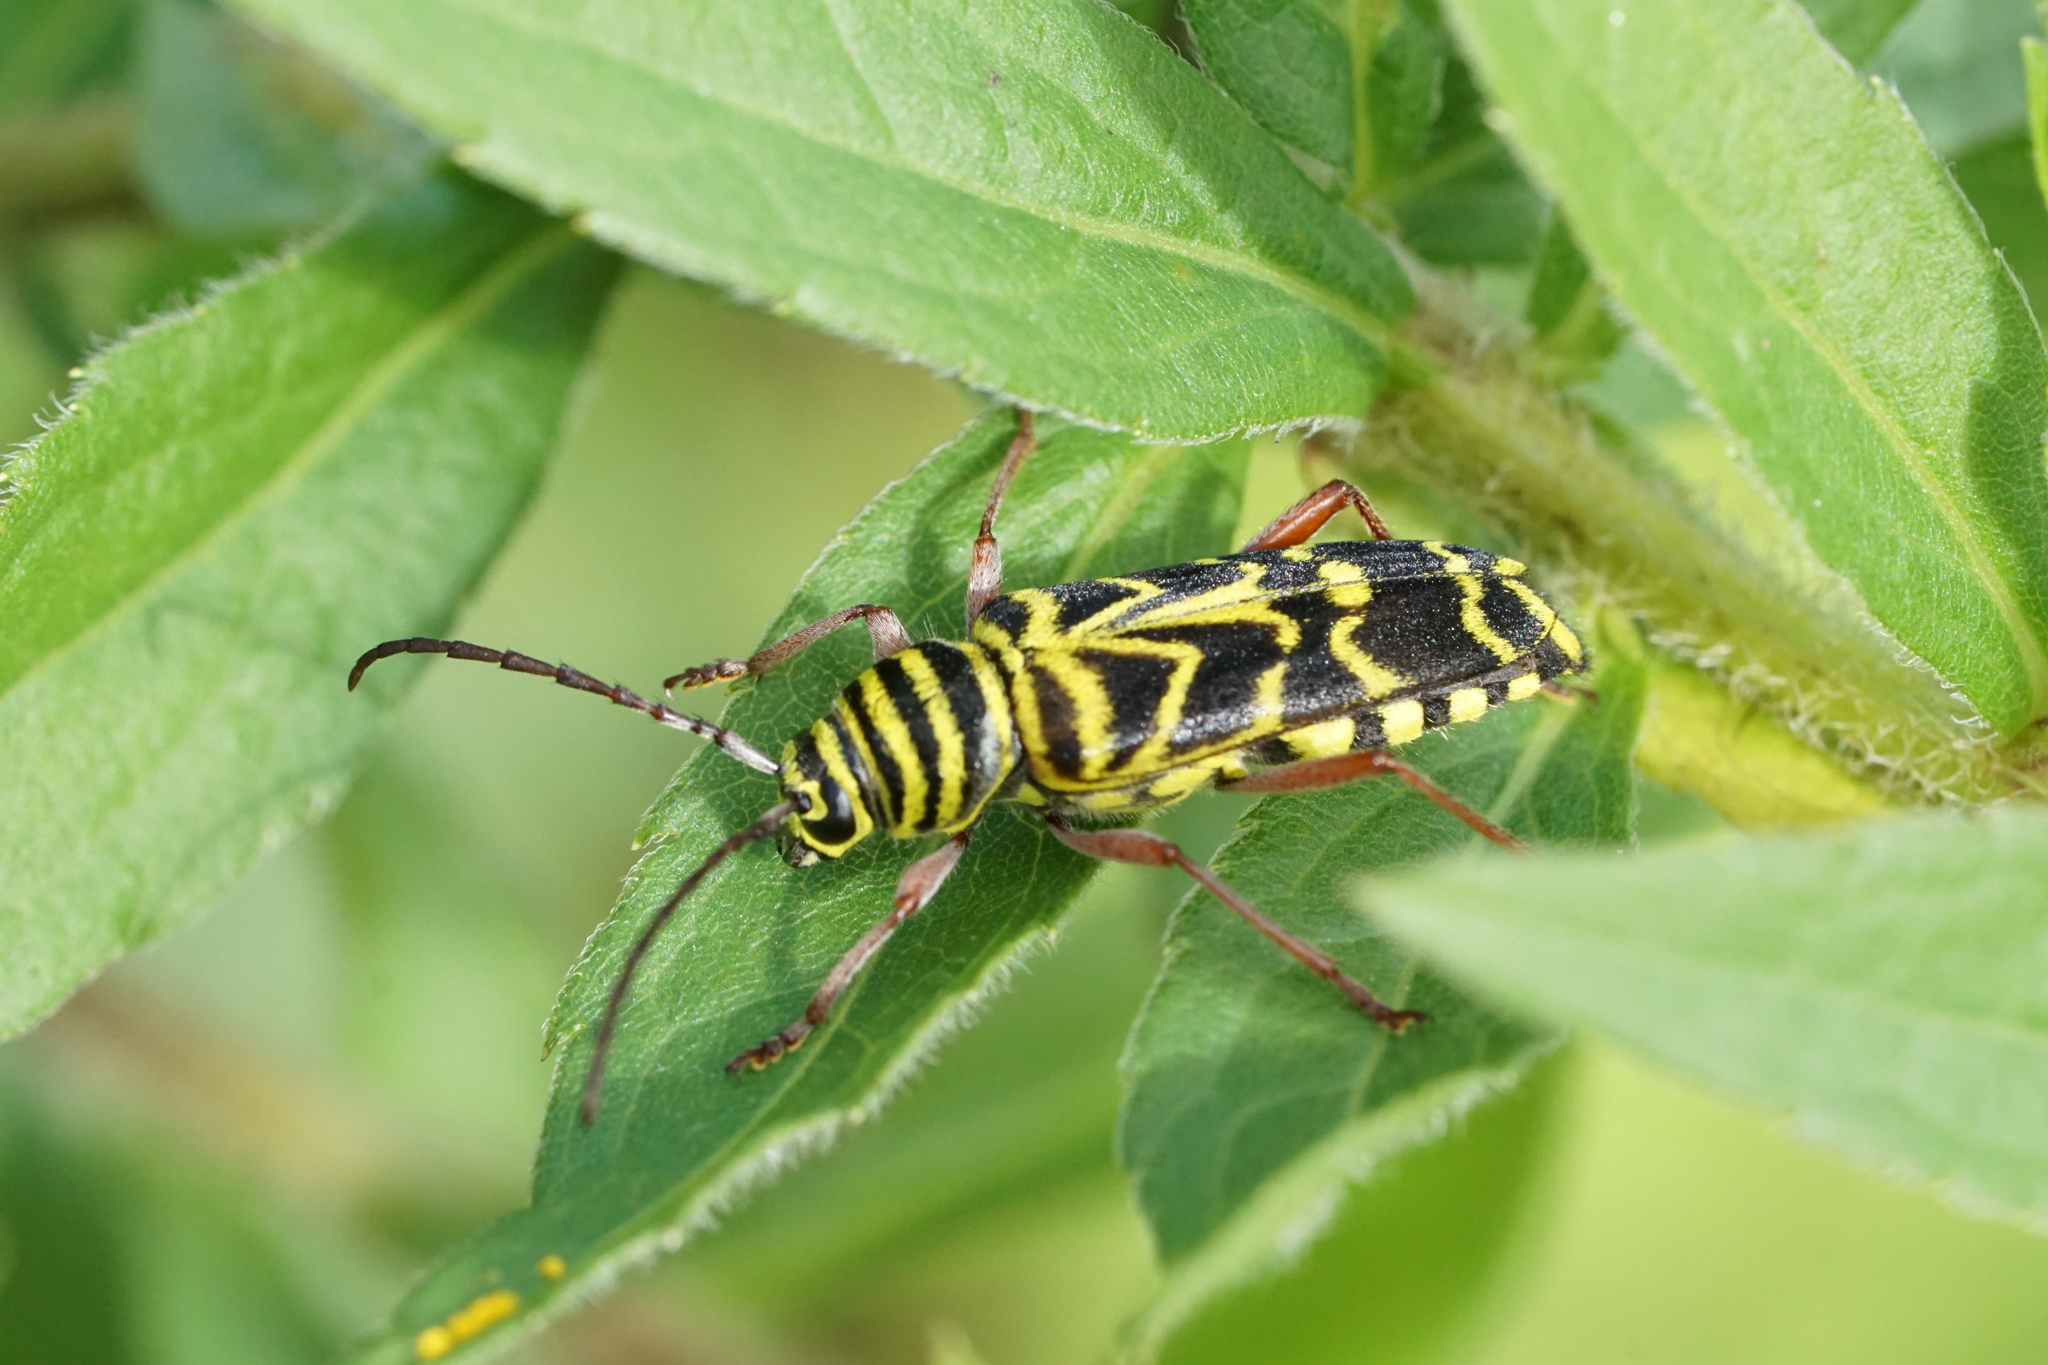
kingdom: Animalia
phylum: Arthropoda
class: Insecta
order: Coleoptera
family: Cerambycidae
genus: Megacyllene
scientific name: Megacyllene robiniae
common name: Locust borer
